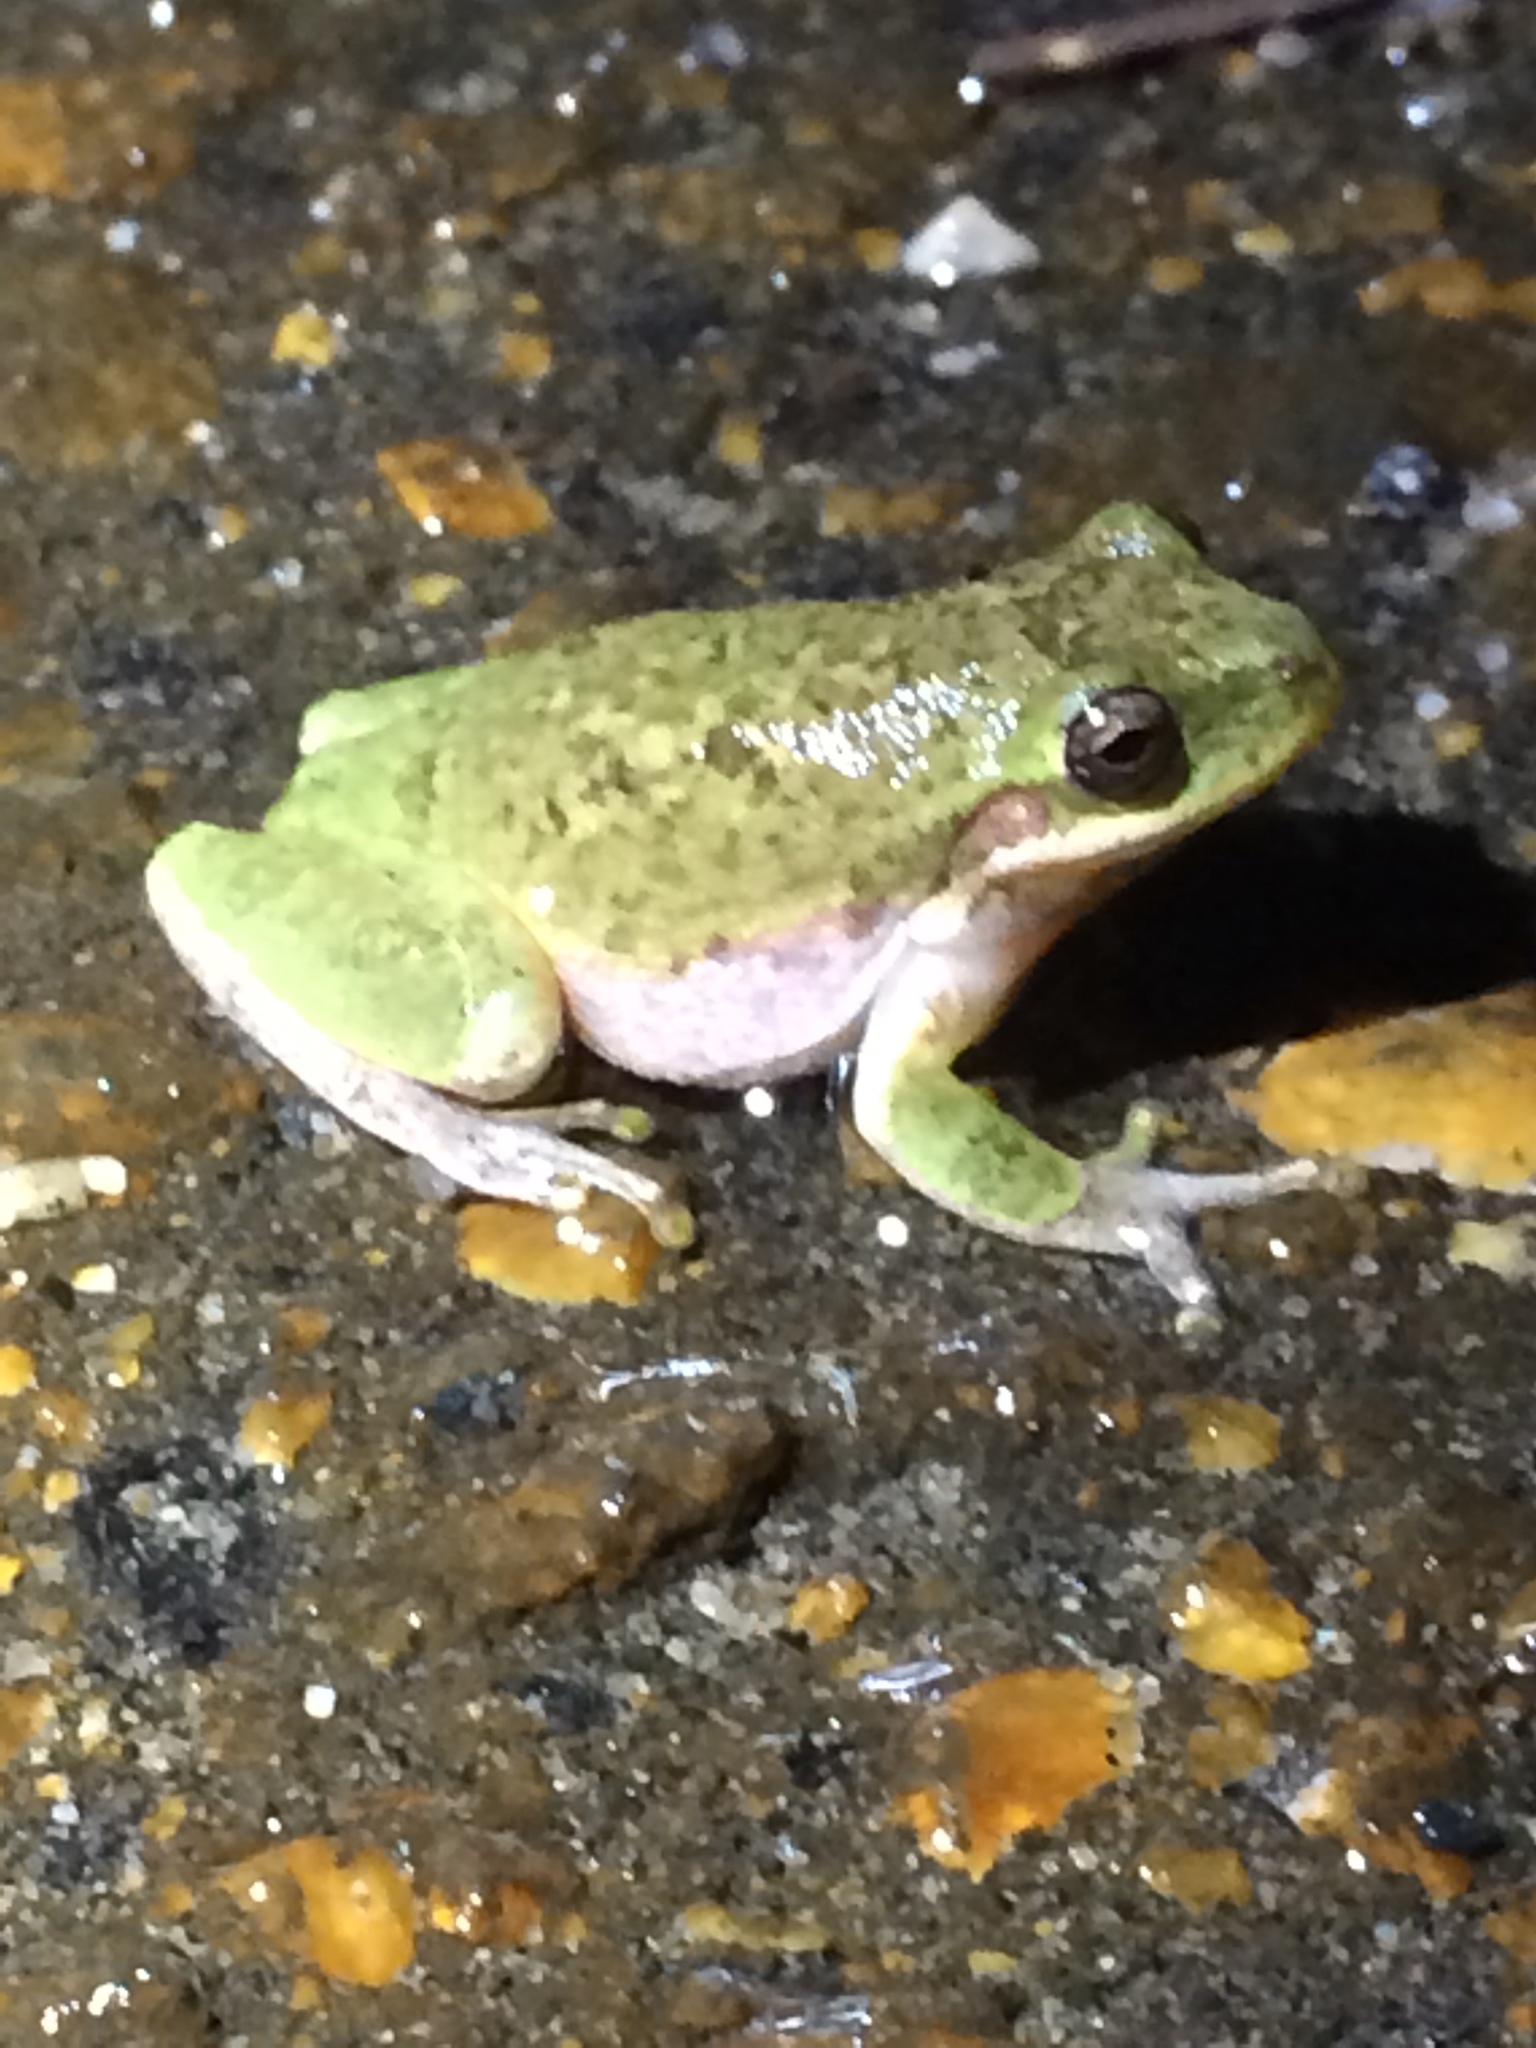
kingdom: Animalia
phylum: Chordata
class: Amphibia
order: Anura
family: Hylidae
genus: Dryophytes
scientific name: Dryophytes squirellus
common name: Squirrel treefrog
